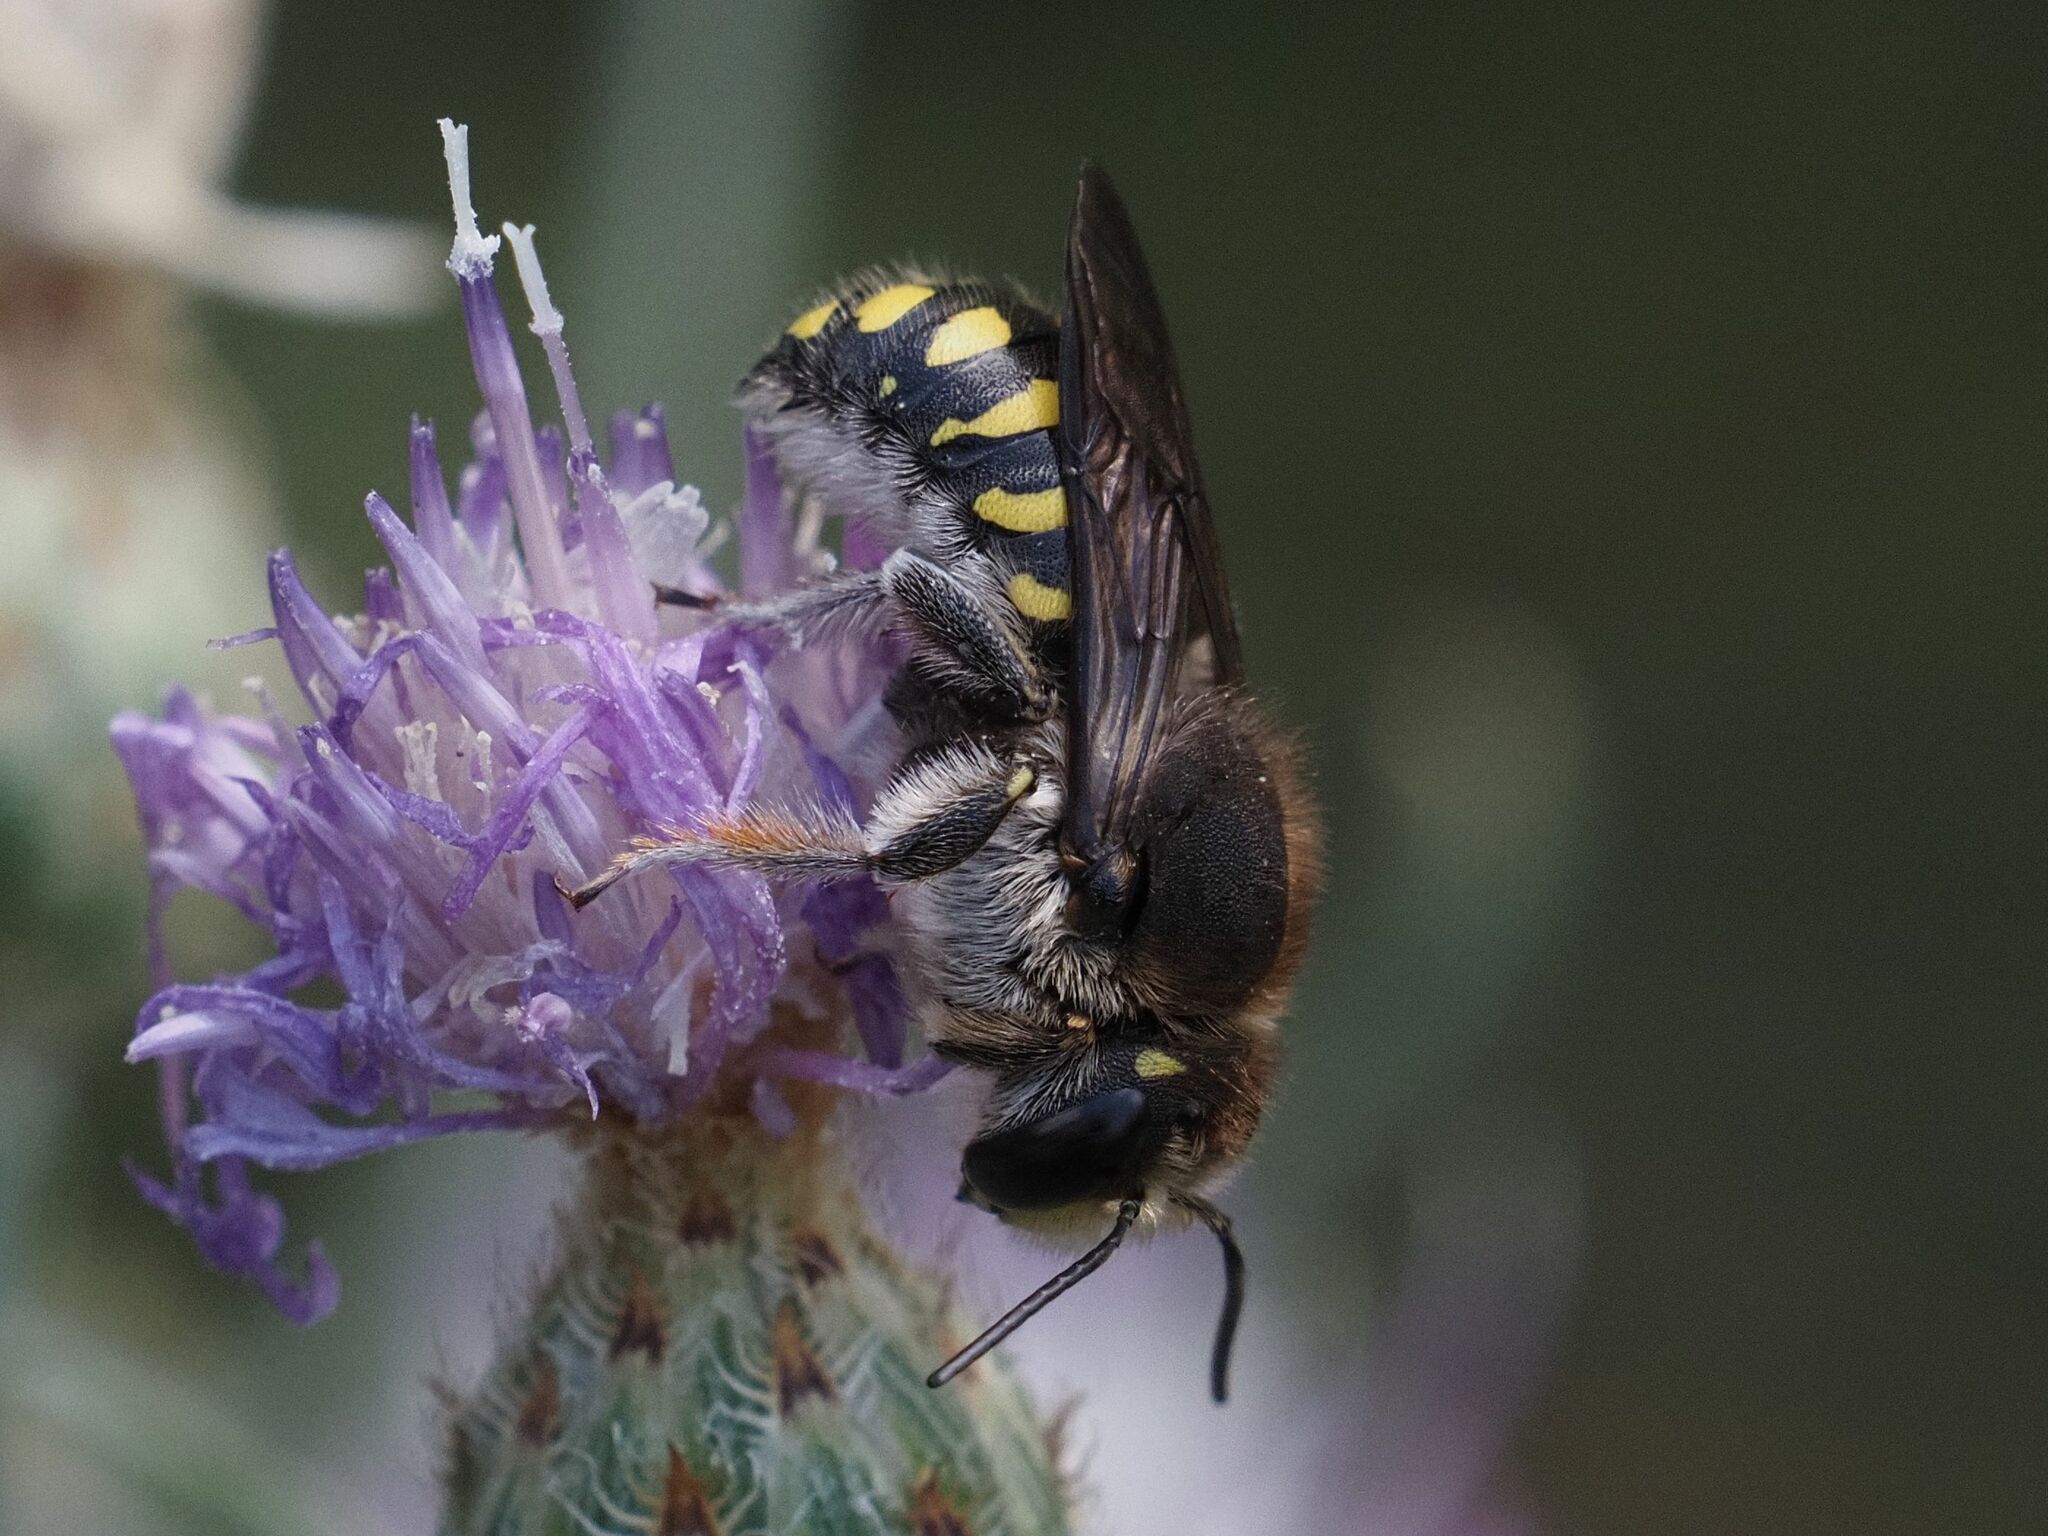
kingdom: Animalia
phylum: Arthropoda
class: Insecta
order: Hymenoptera
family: Megachilidae
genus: Anthidium
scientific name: Anthidium septemspinosum
